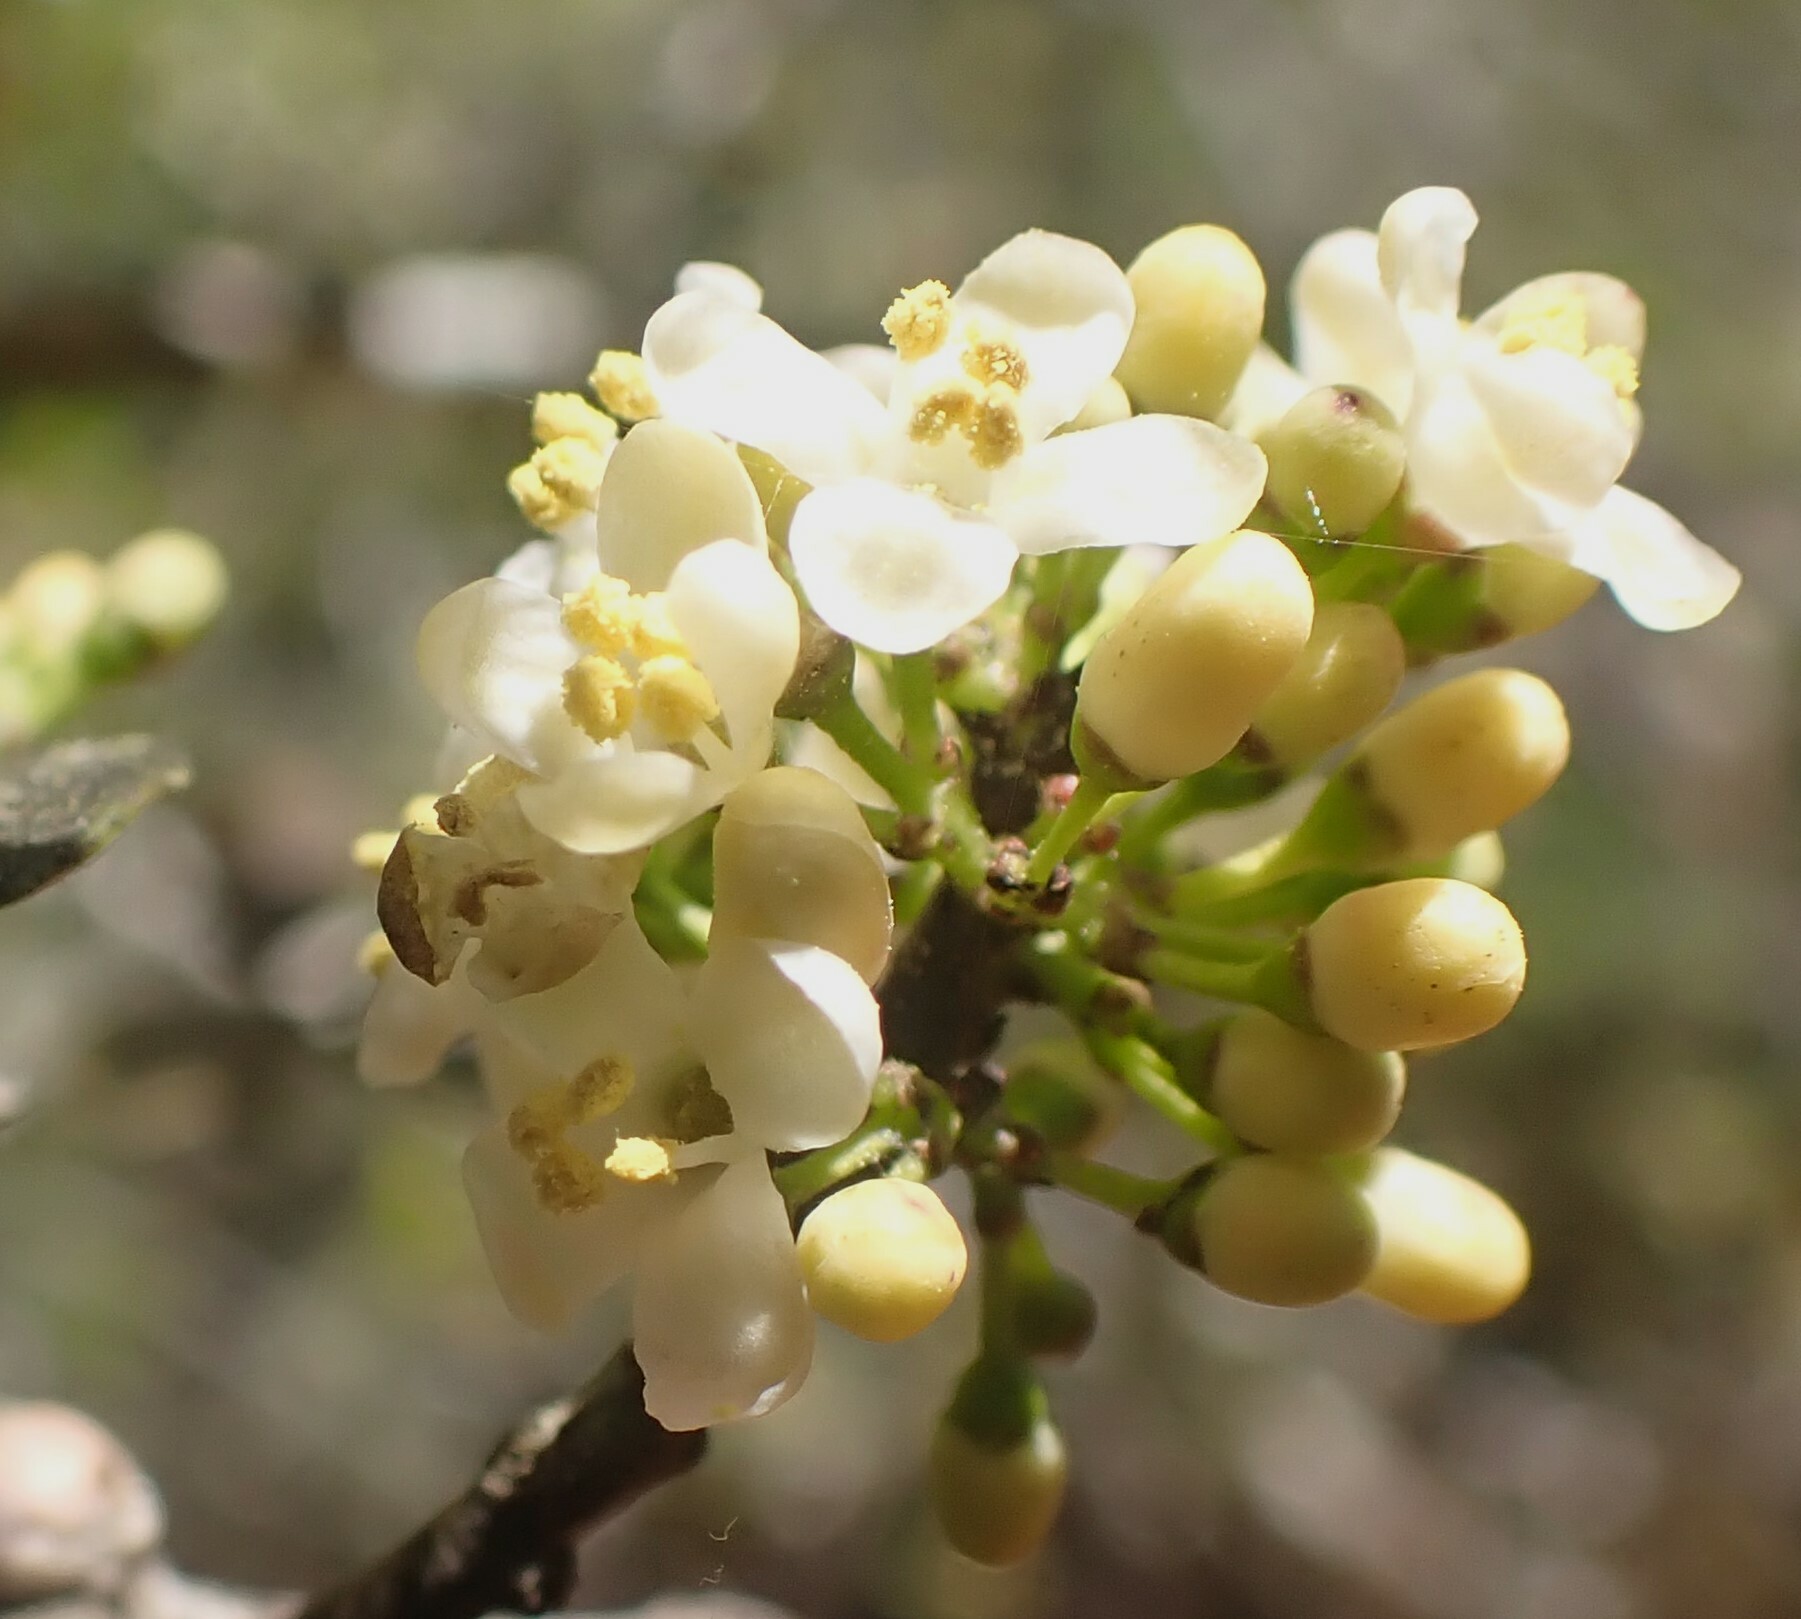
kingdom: Plantae
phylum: Tracheophyta
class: Magnoliopsida
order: Aquifoliales
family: Aquifoliaceae
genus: Ilex
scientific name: Ilex vomitoria
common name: Yaupon holly
